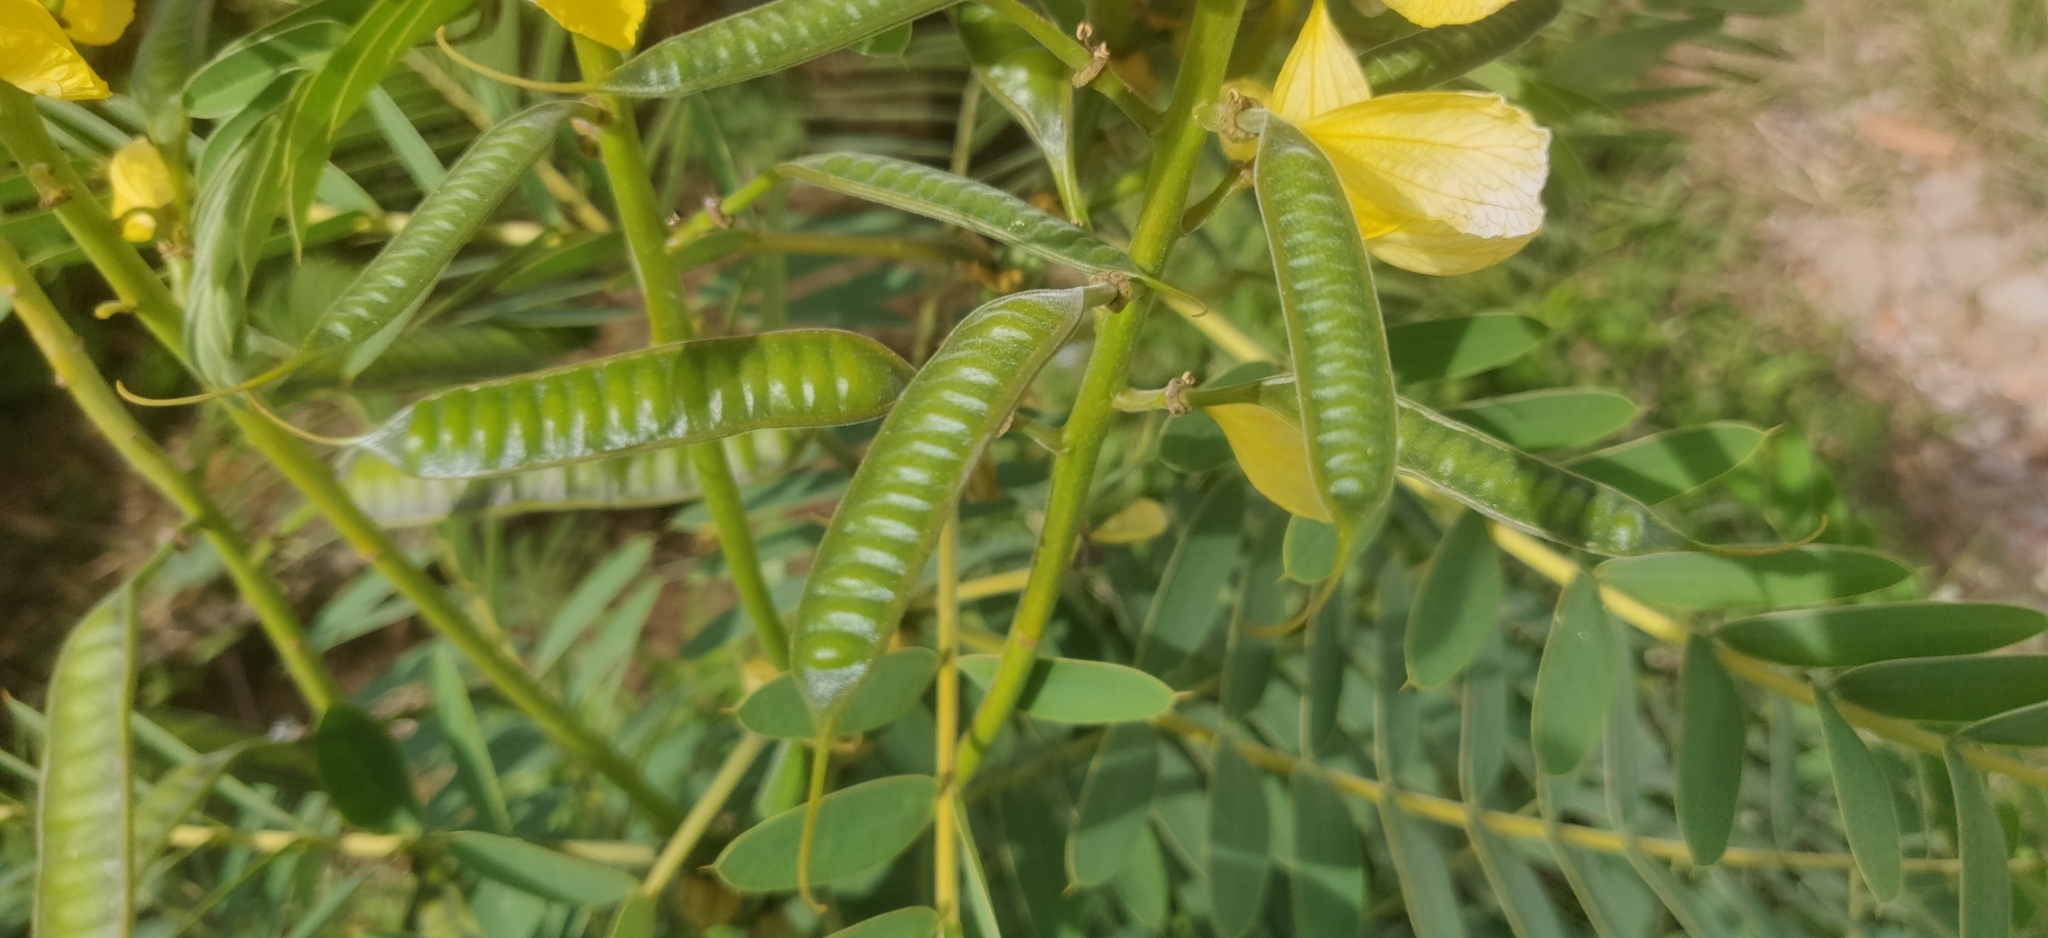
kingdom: Plantae
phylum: Tracheophyta
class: Magnoliopsida
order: Fabales
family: Fabaceae
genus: Senna
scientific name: Senna didymobotrya
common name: African senna
